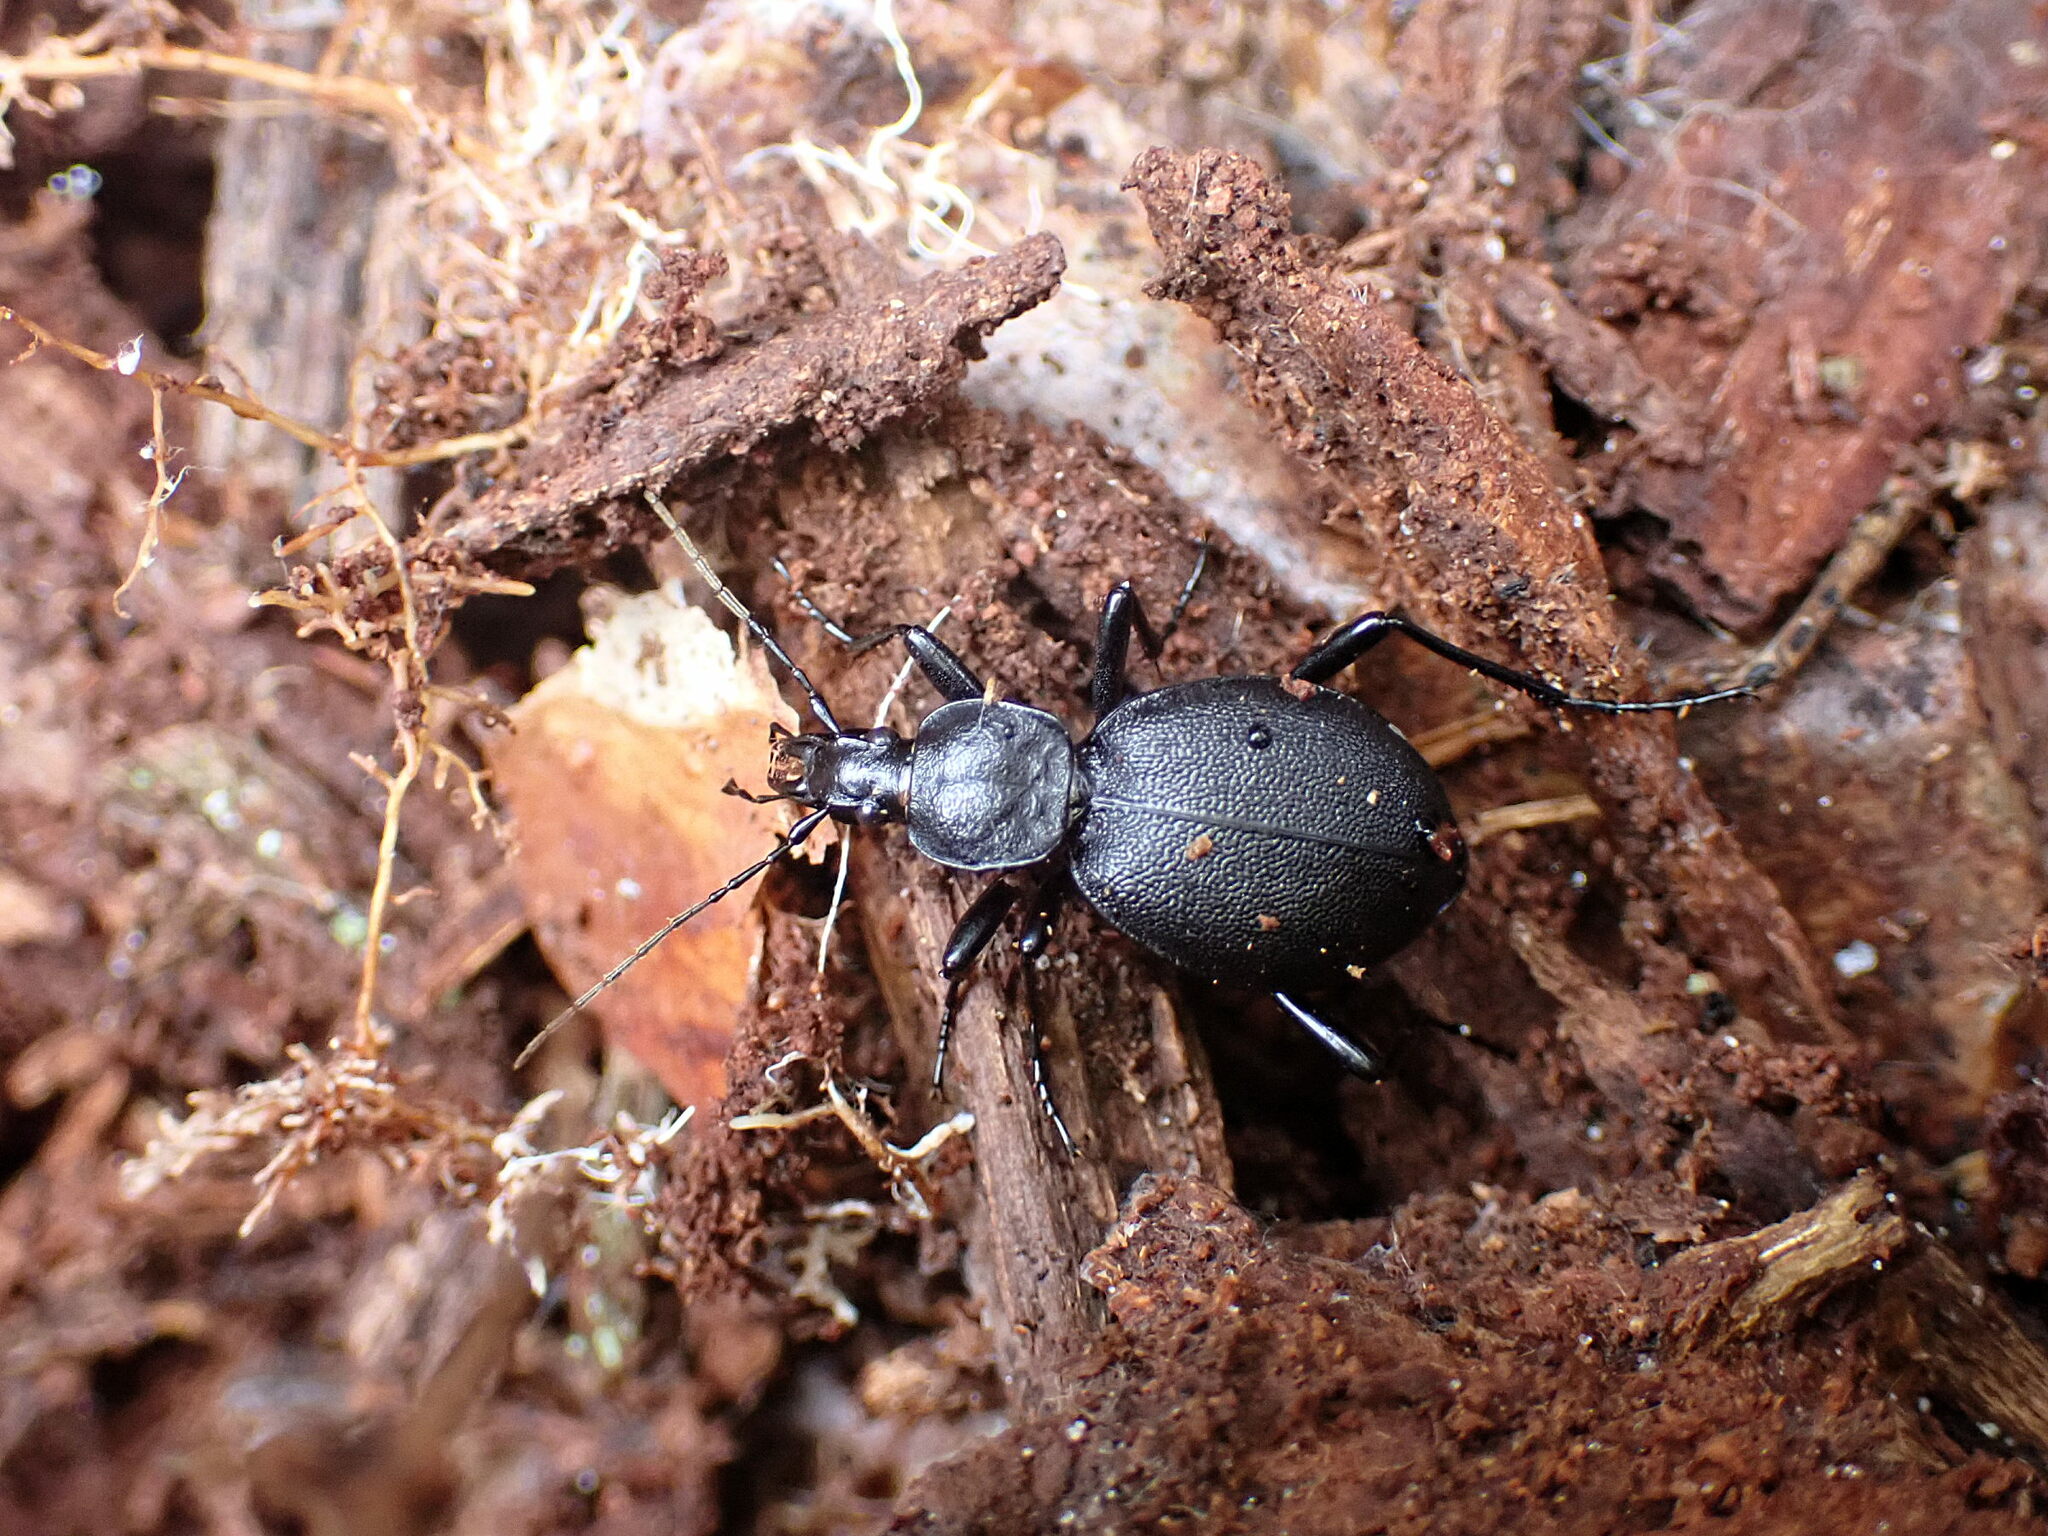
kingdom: Animalia
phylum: Arthropoda
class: Insecta
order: Coleoptera
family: Carabidae
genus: Cychrus
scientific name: Cychrus caraboides
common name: Snail hunter
